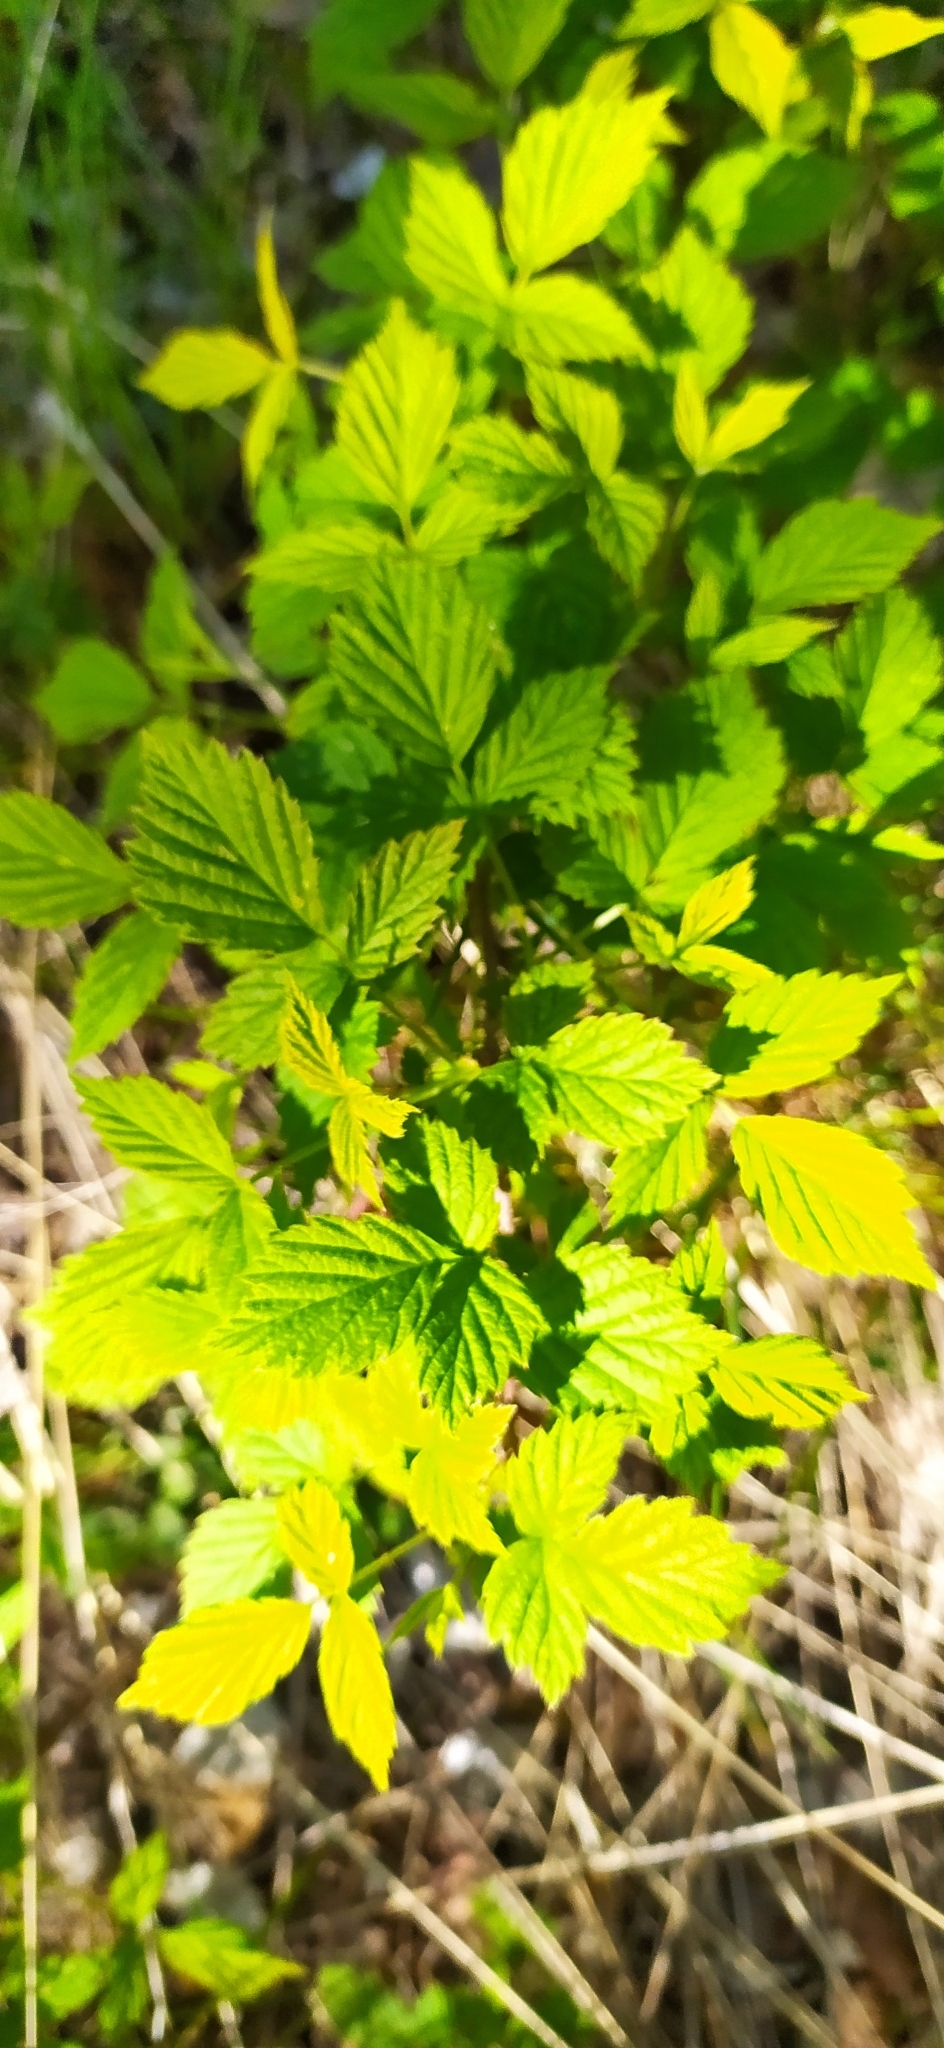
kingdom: Plantae
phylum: Tracheophyta
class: Magnoliopsida
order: Rosales
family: Rosaceae
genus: Rubus
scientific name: Rubus idaeus
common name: Raspberry
